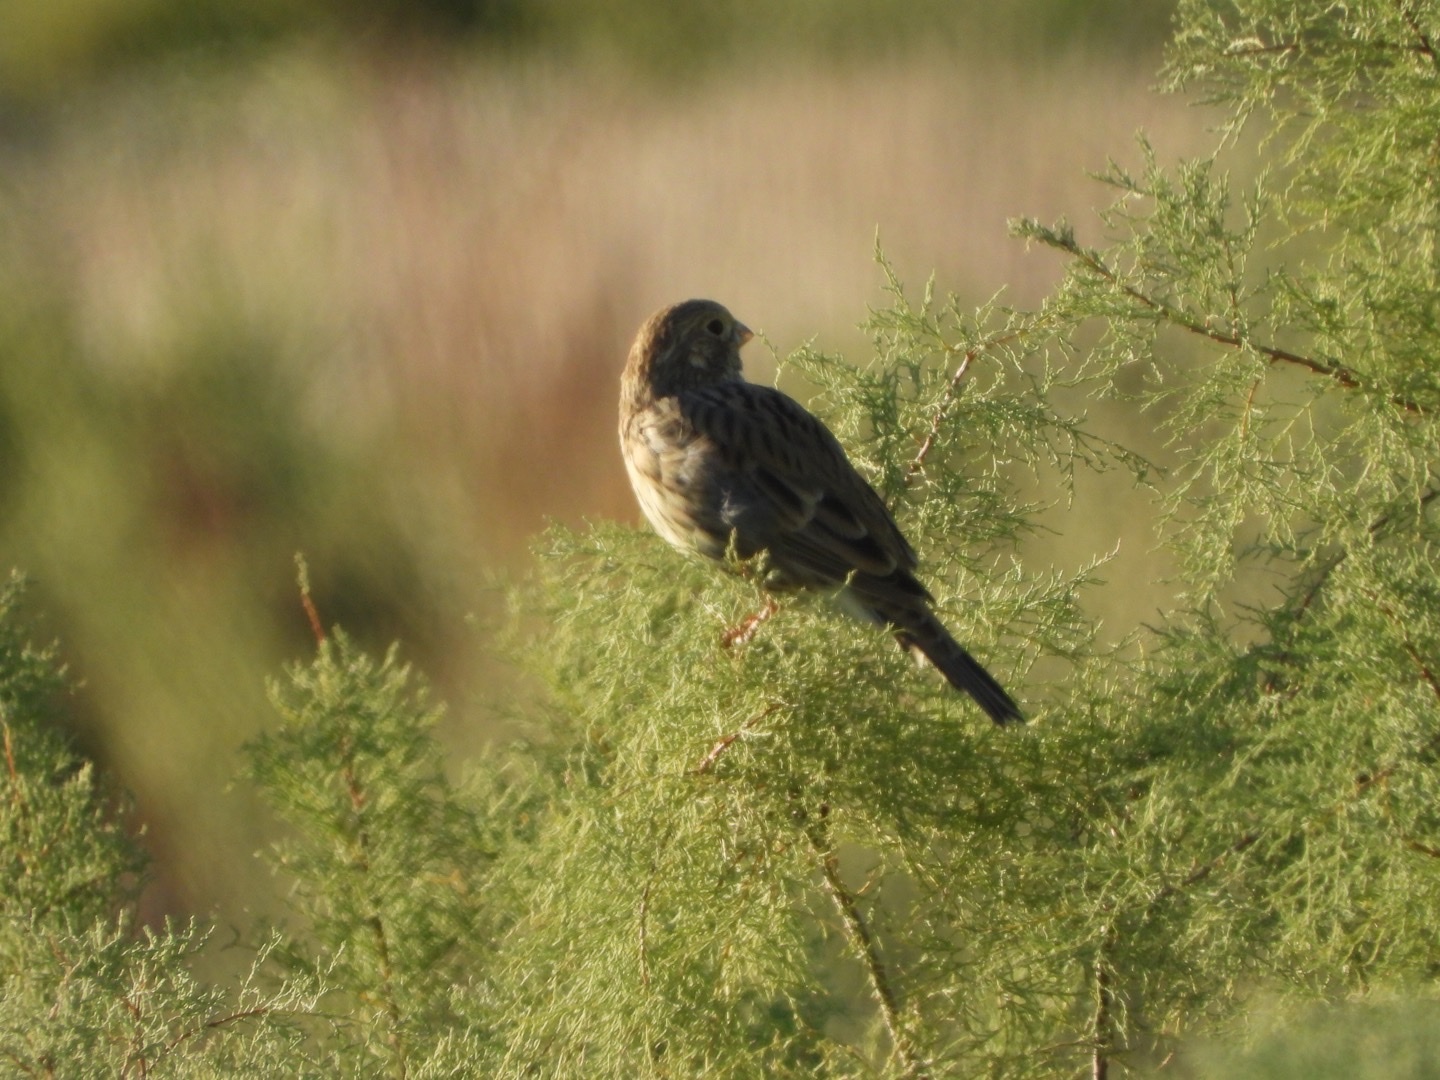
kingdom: Animalia
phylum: Chordata
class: Aves
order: Passeriformes
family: Emberizidae
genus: Emberiza
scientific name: Emberiza calandra
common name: Corn bunting
